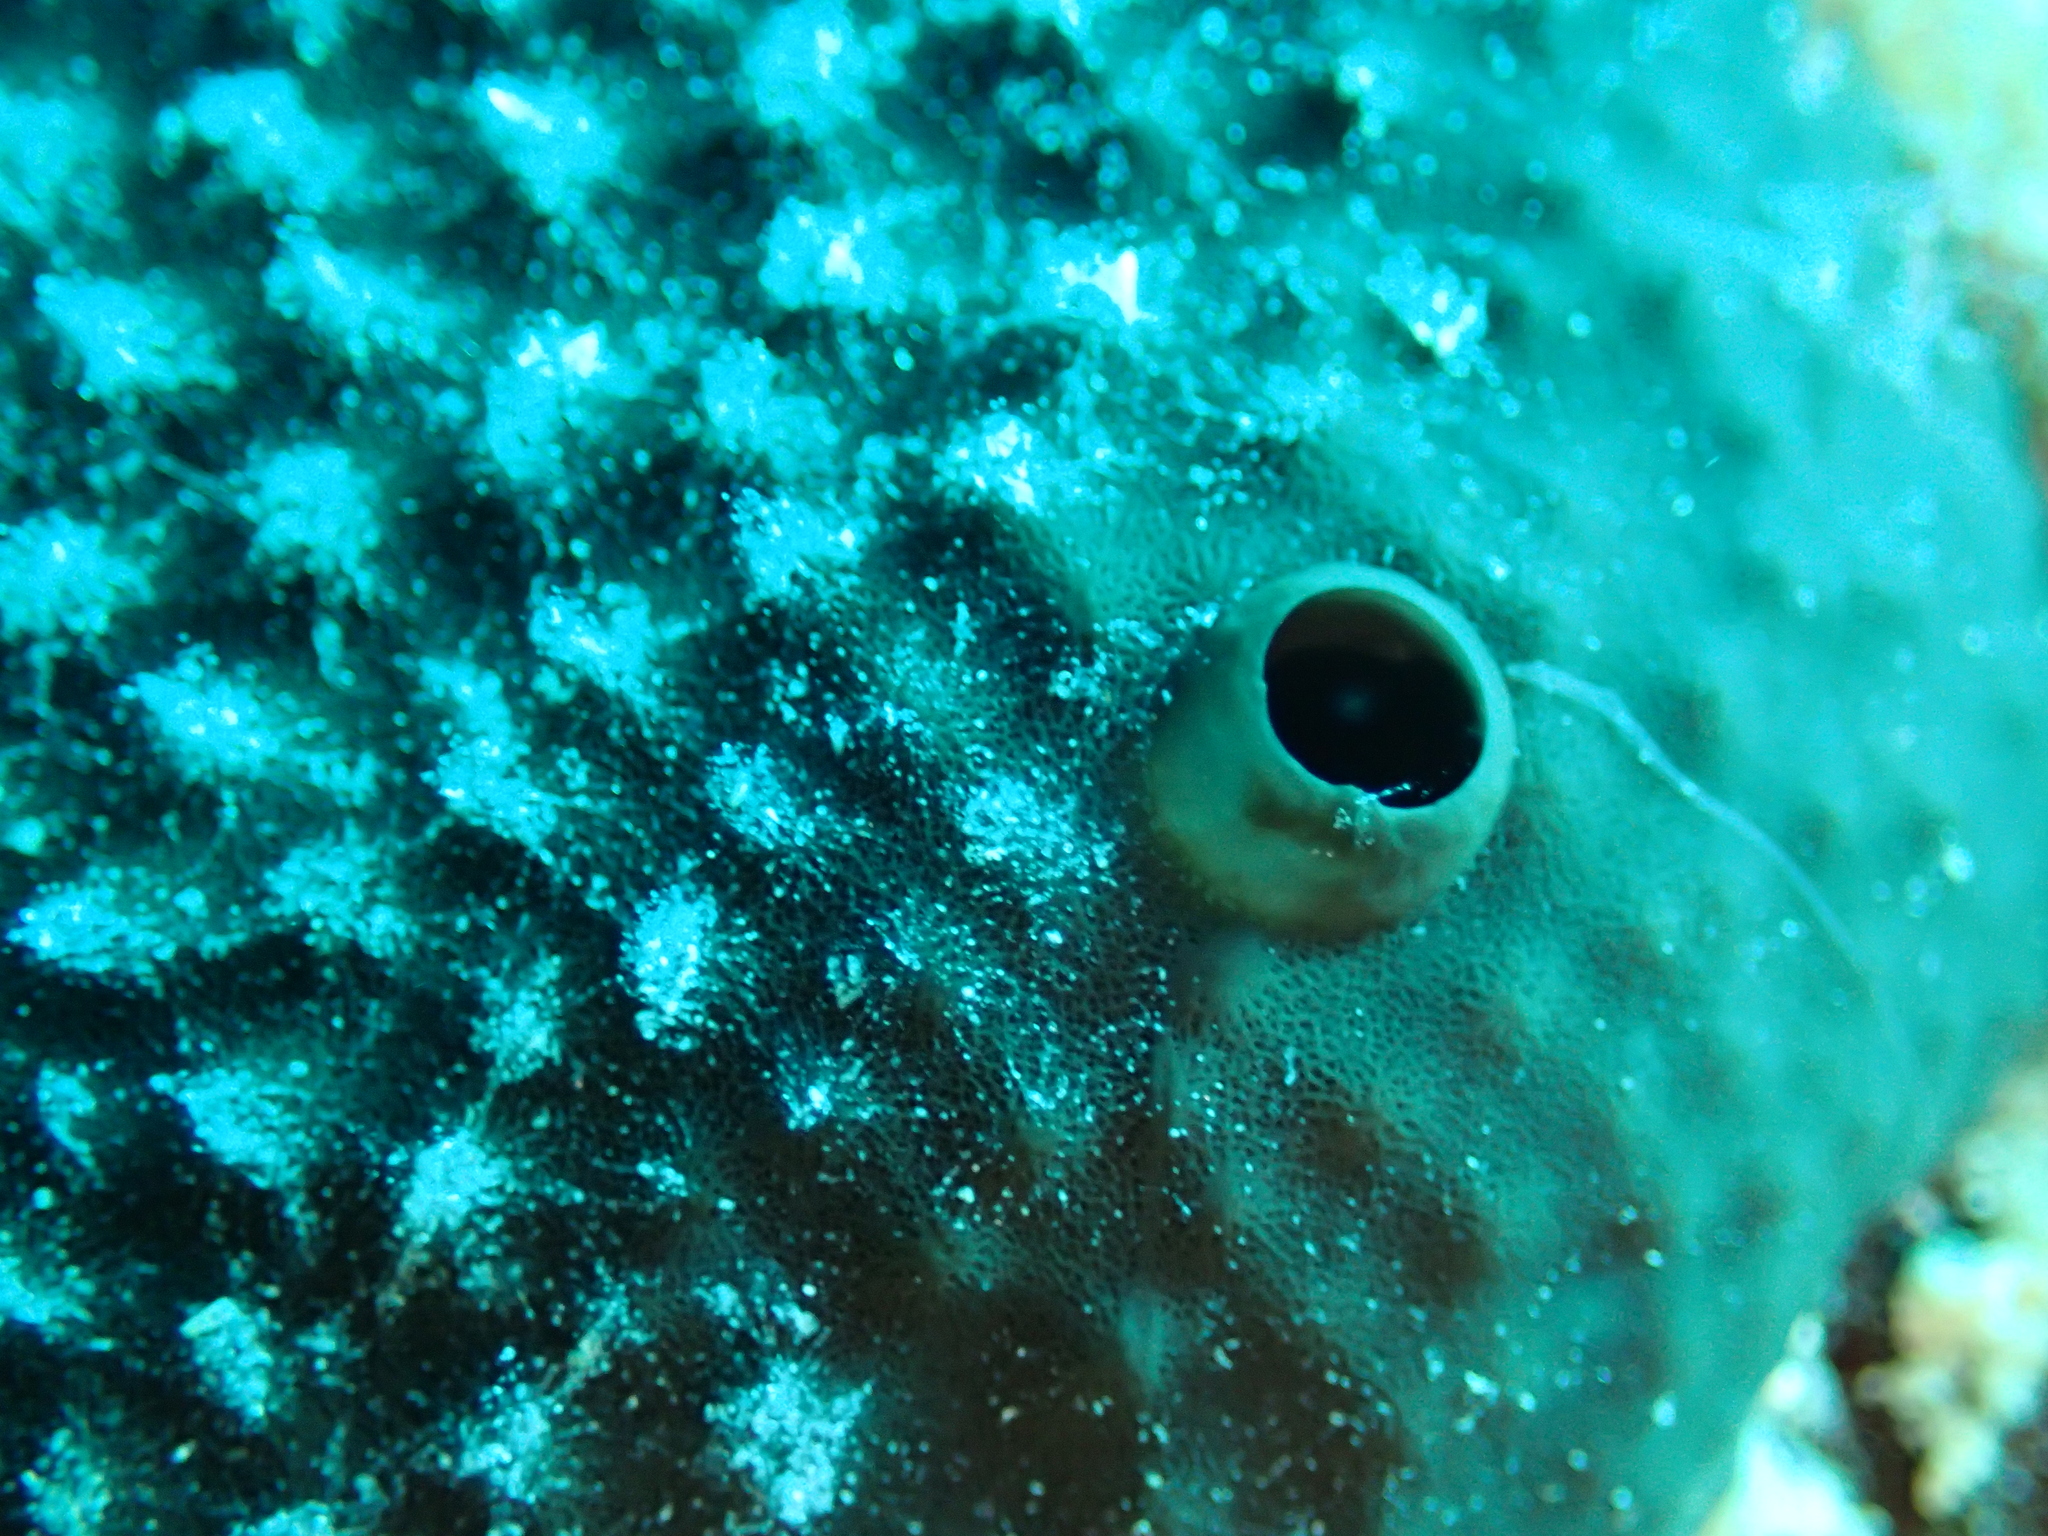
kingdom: Animalia
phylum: Porifera
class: Demospongiae
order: Dictyoceratida
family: Irciniidae
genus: Sarcotragus
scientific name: Sarcotragus spinosulus
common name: Black leather sponge
